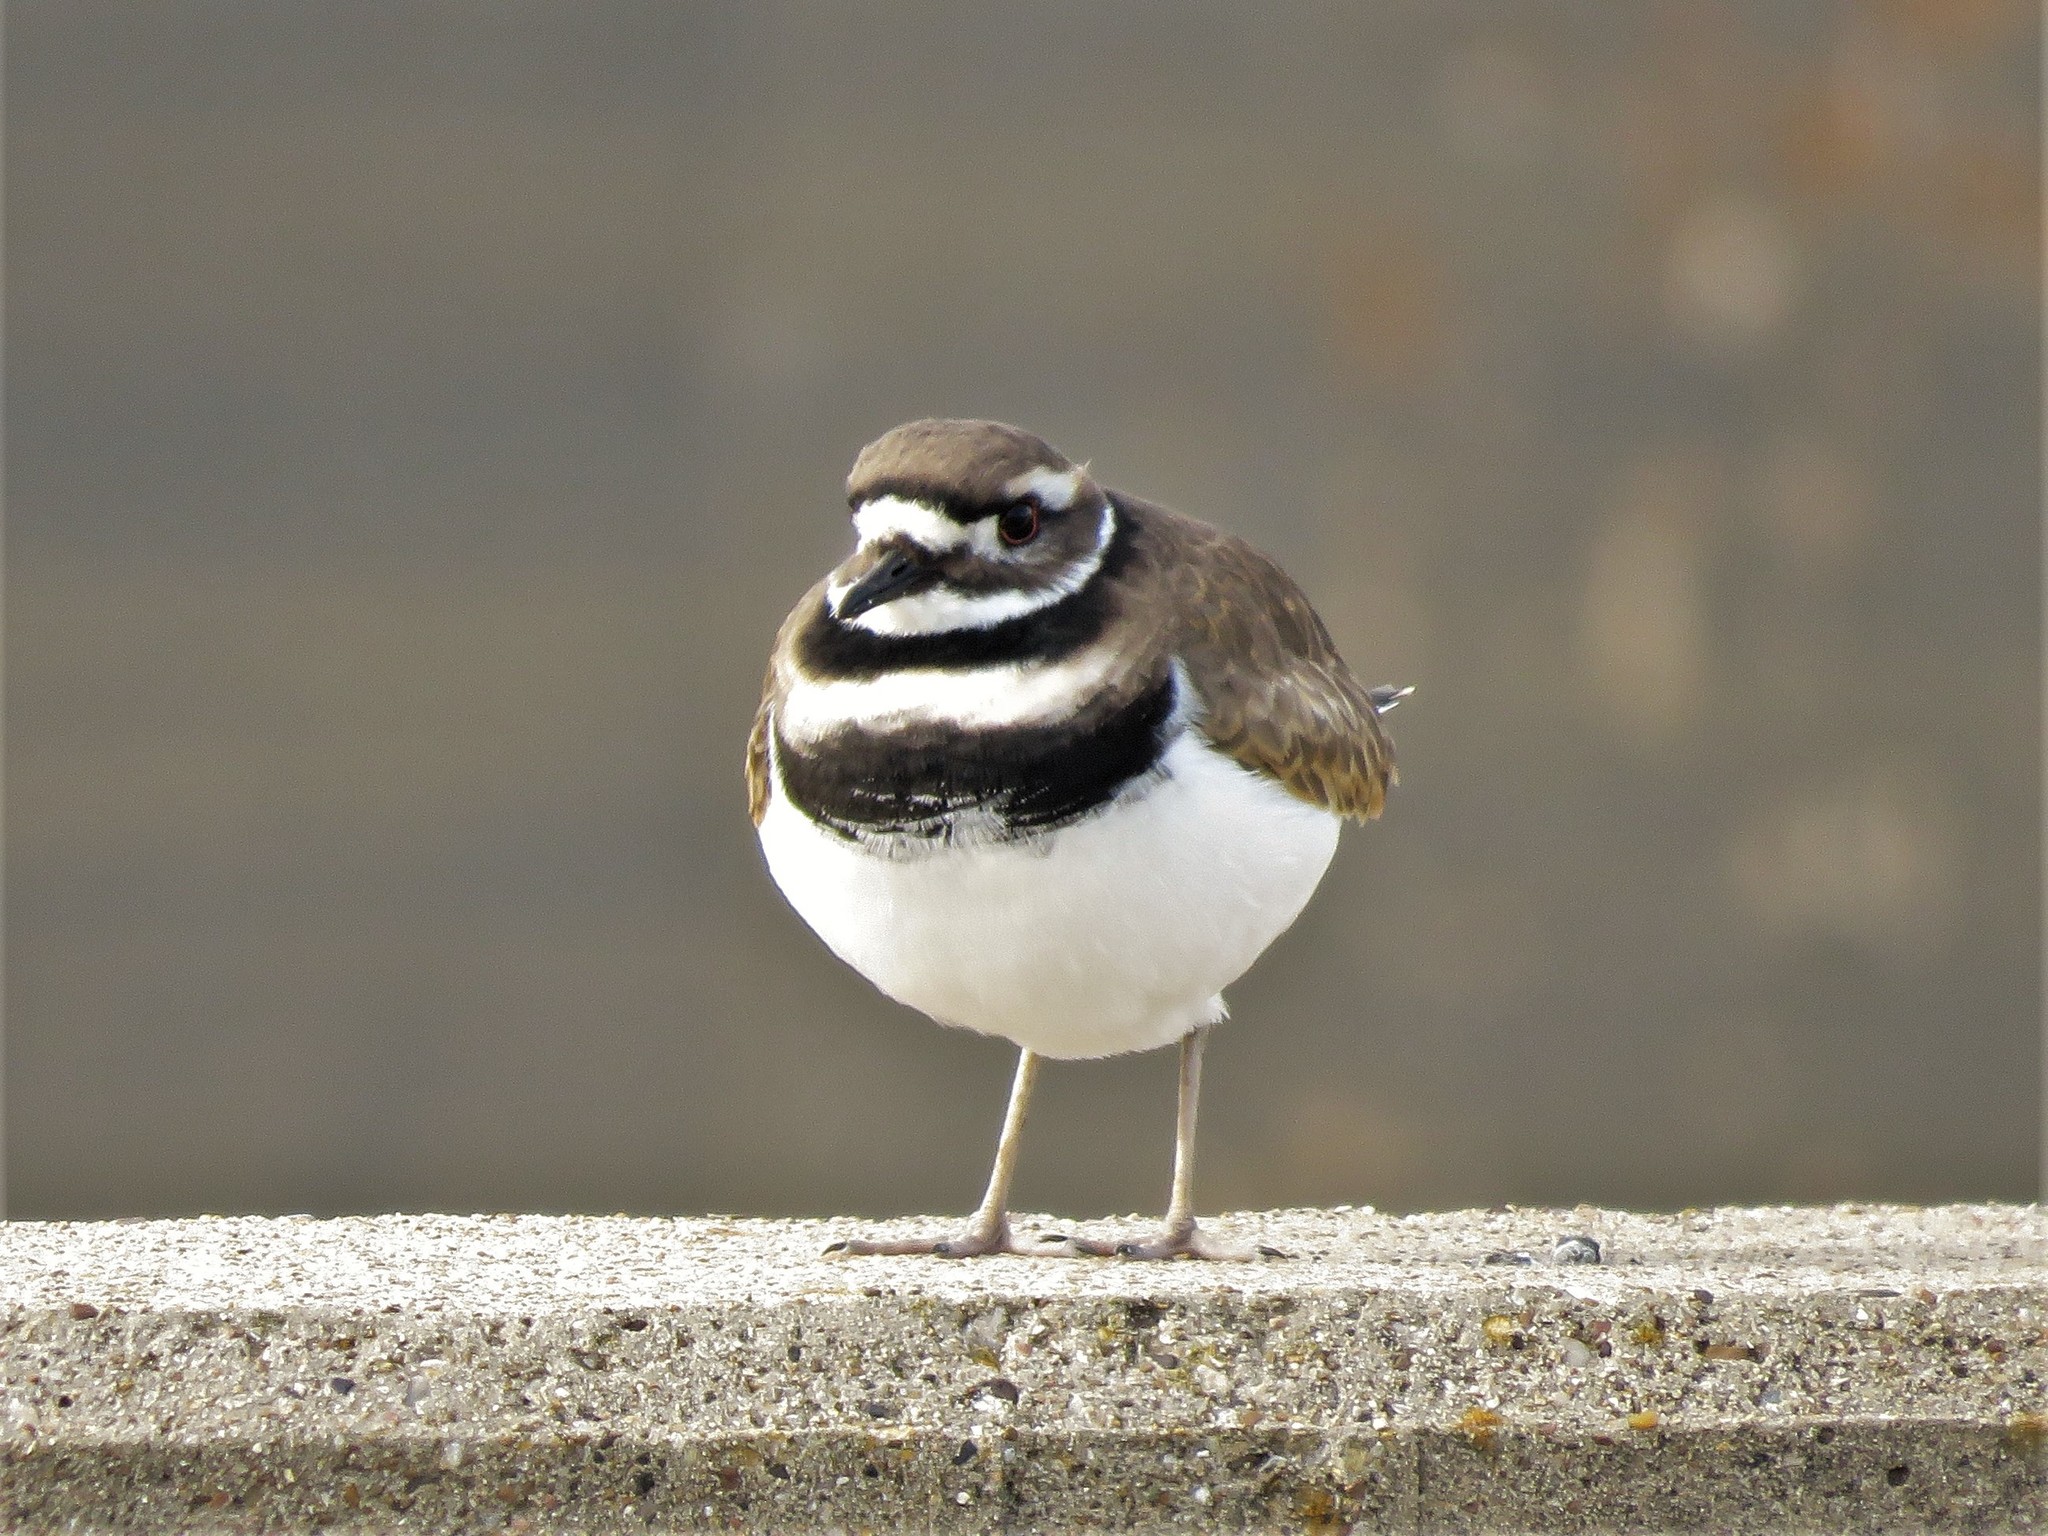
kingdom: Animalia
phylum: Chordata
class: Aves
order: Charadriiformes
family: Charadriidae
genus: Charadrius
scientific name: Charadrius vociferus
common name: Killdeer
